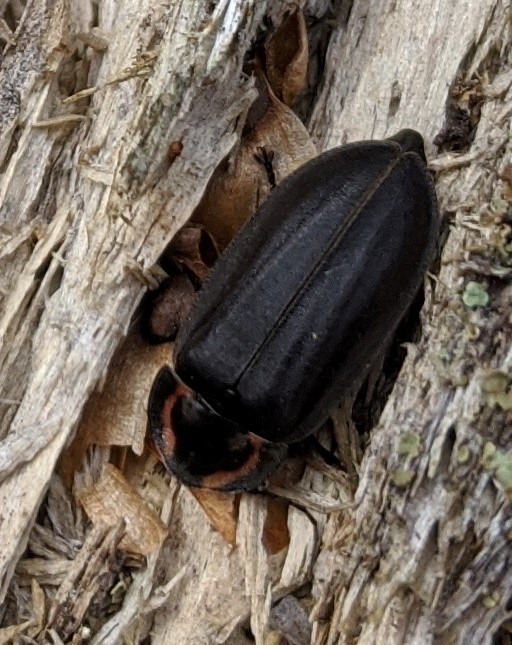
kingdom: Animalia
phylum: Arthropoda
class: Insecta
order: Coleoptera
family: Lampyridae
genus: Photinus
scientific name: Photinus corrusca
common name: Winter firefly
